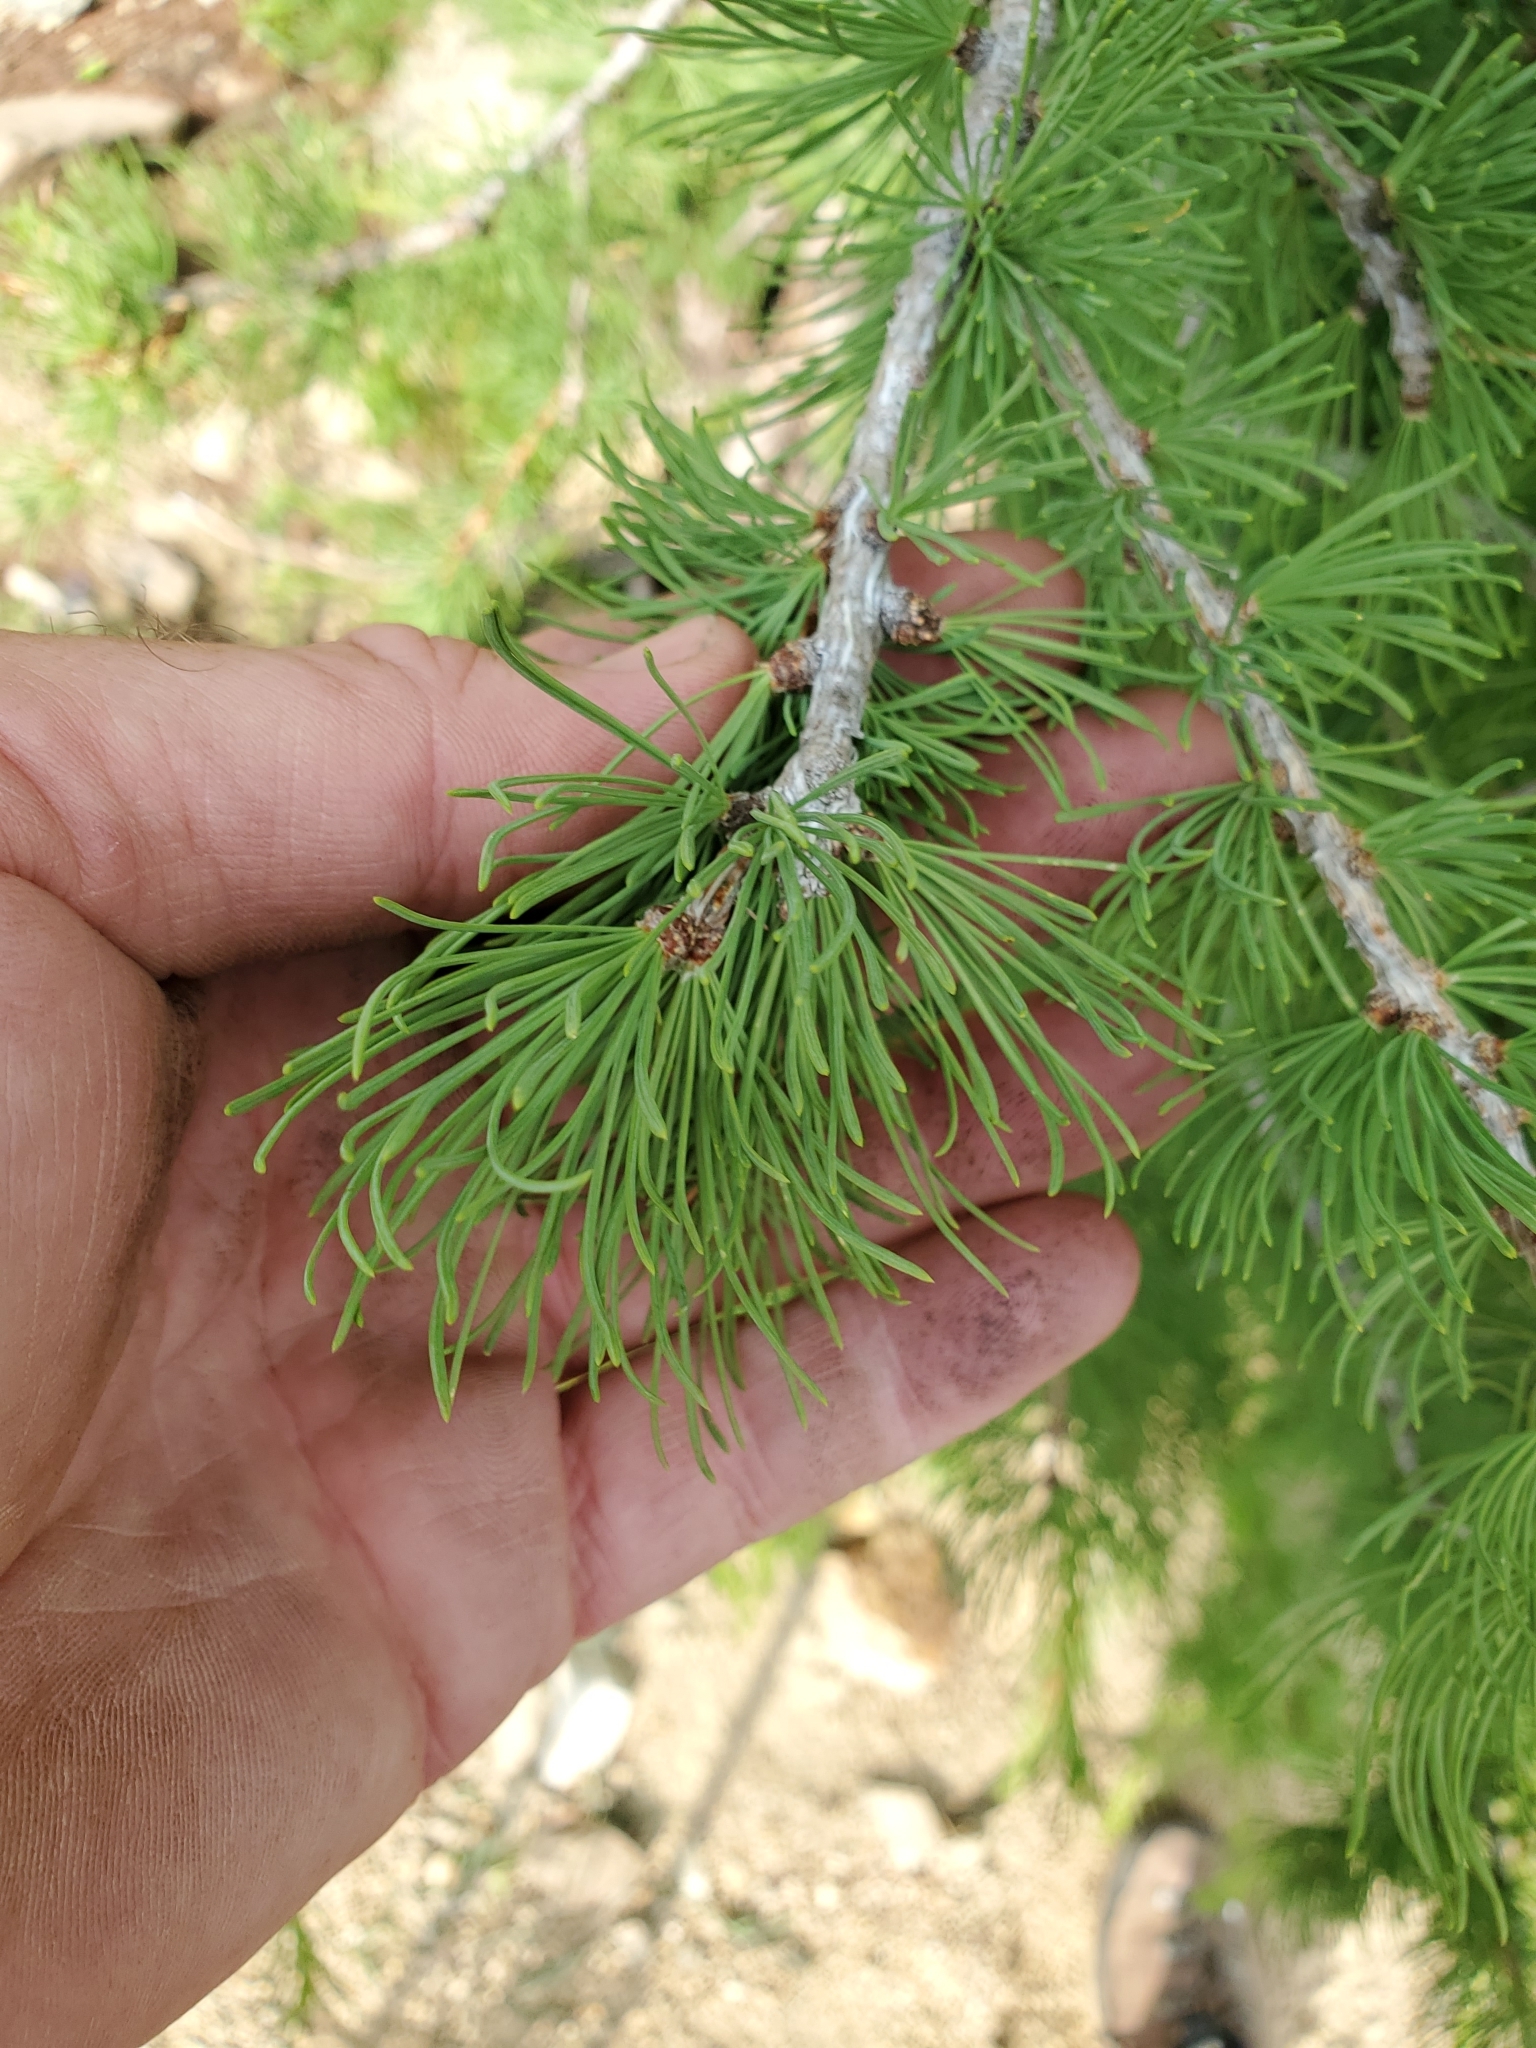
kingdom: Plantae
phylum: Tracheophyta
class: Pinopsida
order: Pinales
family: Pinaceae
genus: Larix
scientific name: Larix lyallii
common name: Alpine larch
